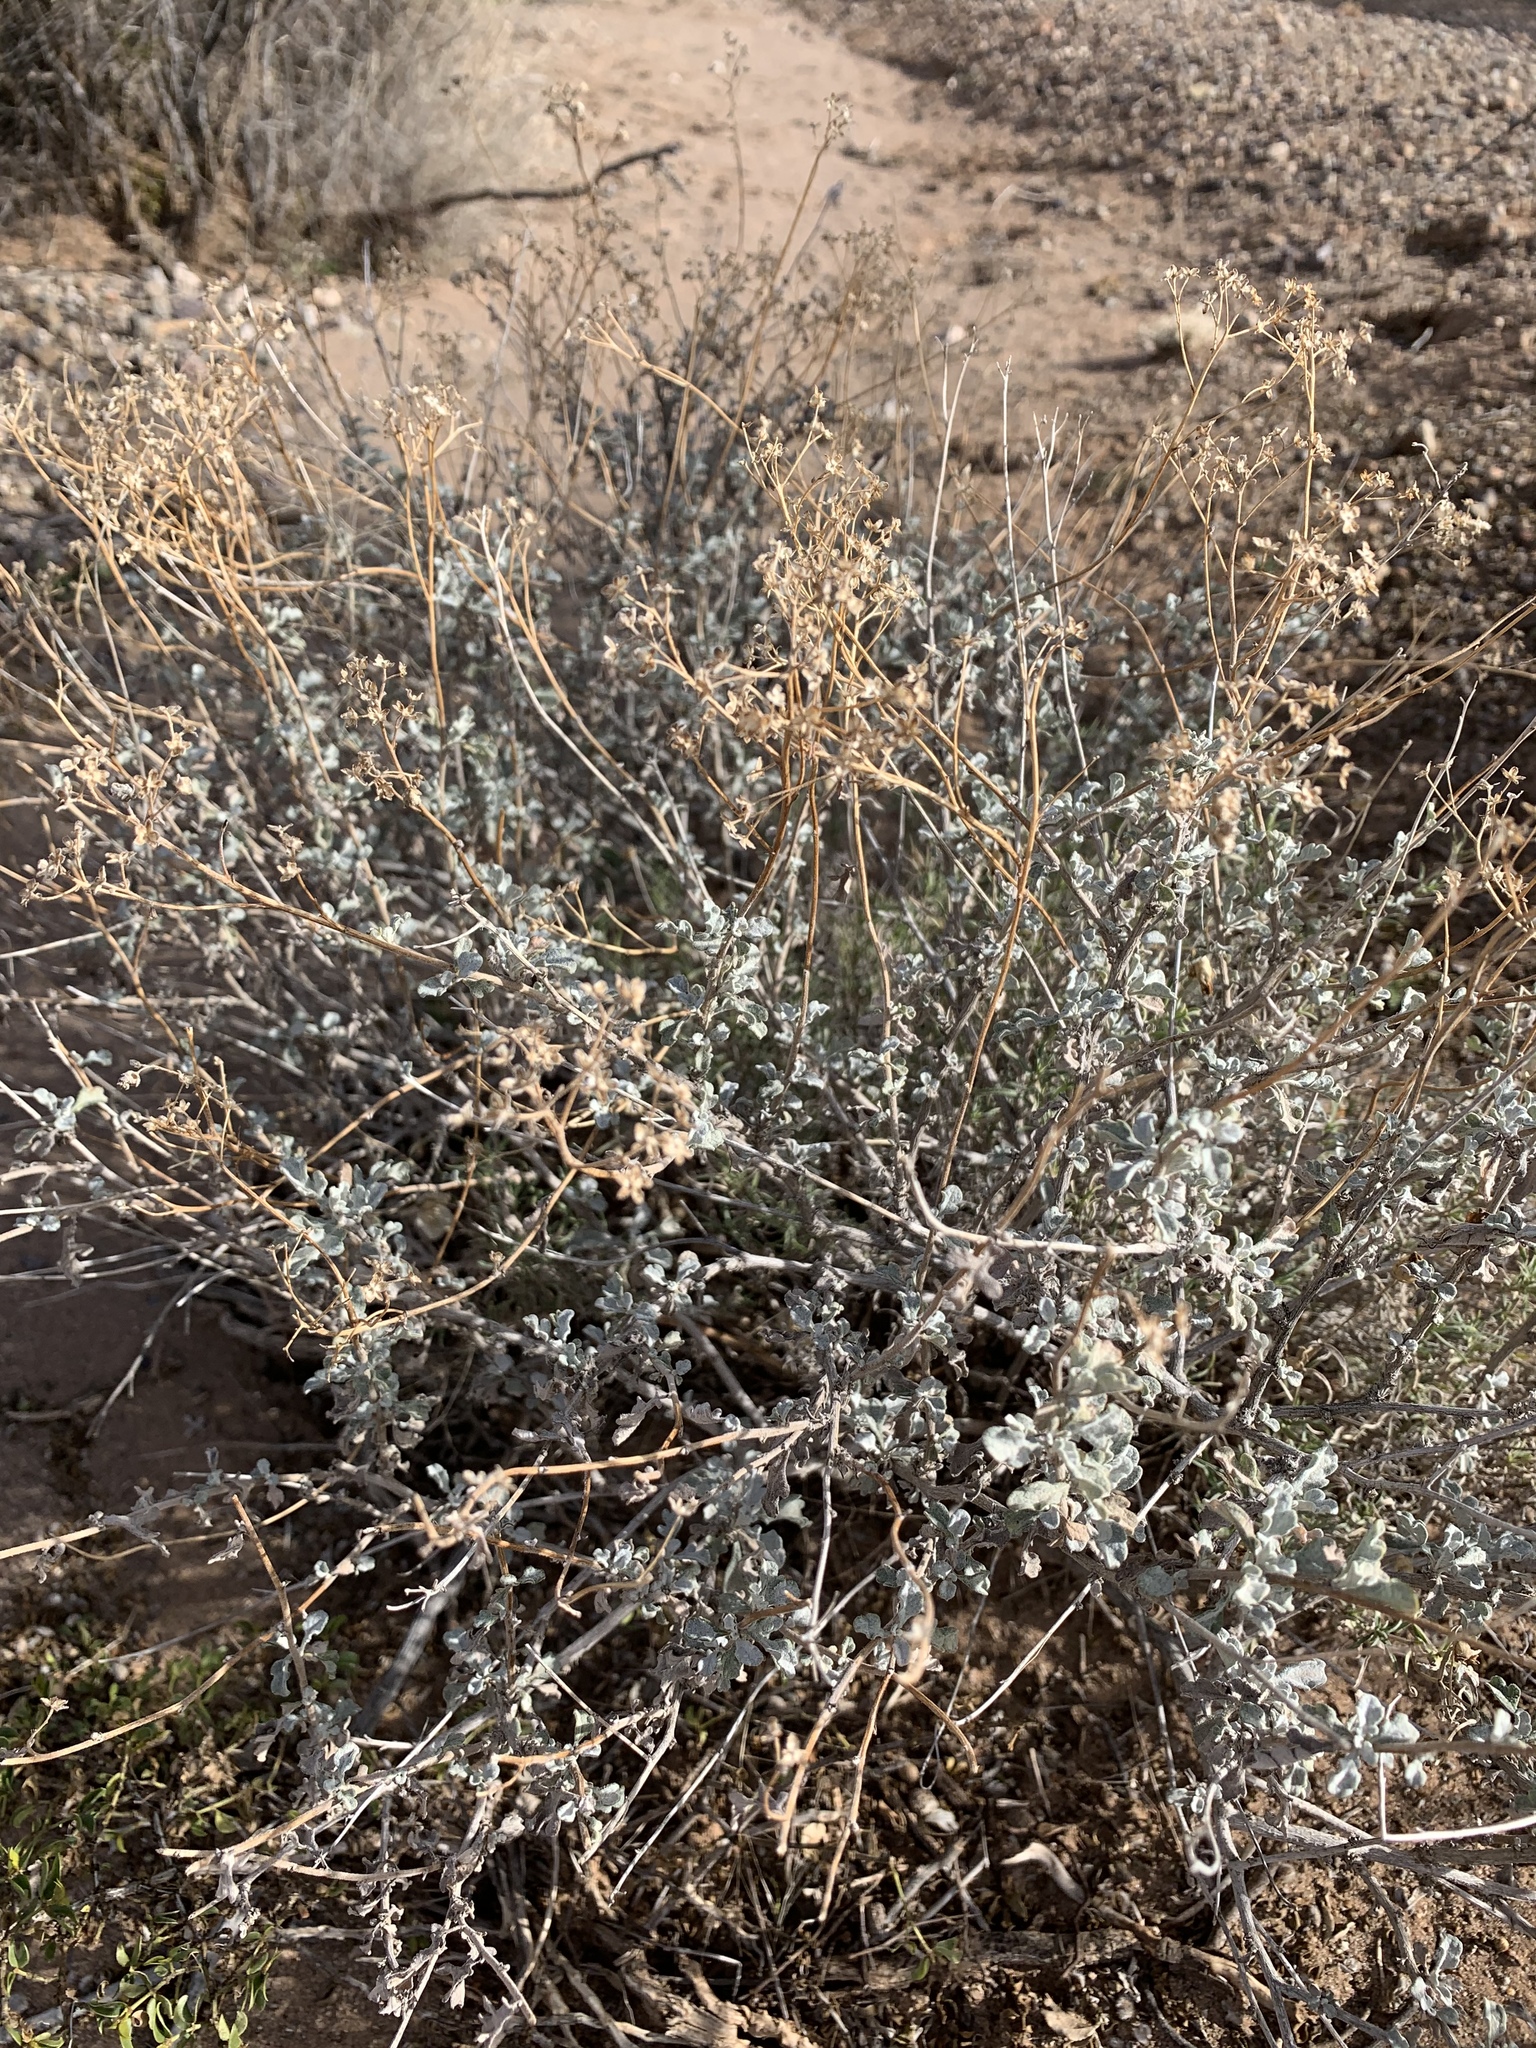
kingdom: Plantae
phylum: Tracheophyta
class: Magnoliopsida
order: Asterales
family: Asteraceae
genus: Parthenium
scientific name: Parthenium incanum
